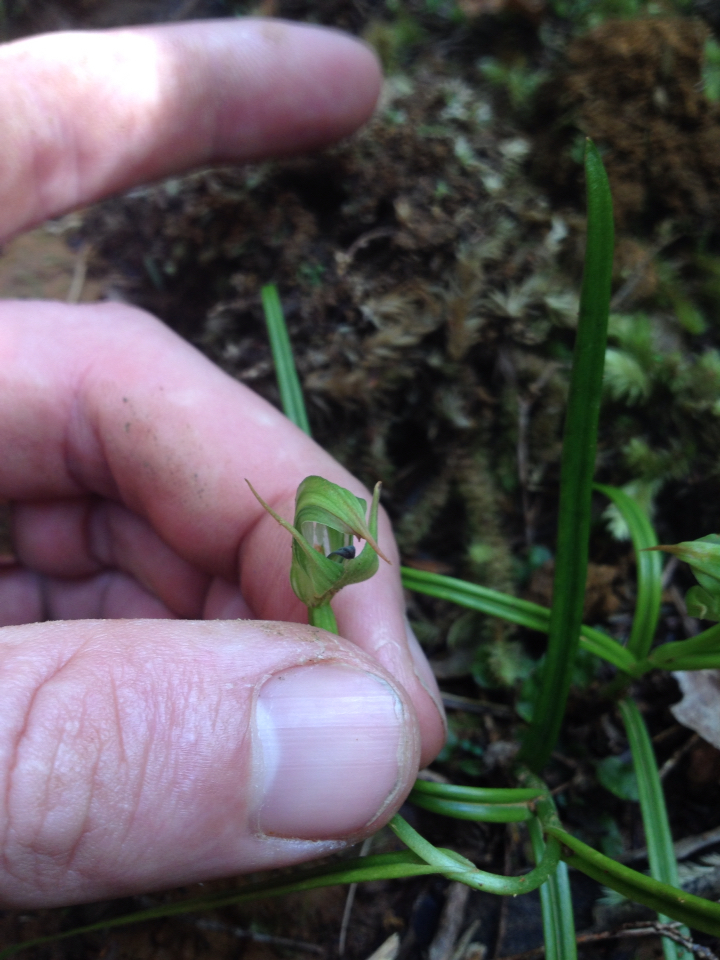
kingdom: Plantae
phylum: Tracheophyta
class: Liliopsida
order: Asparagales
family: Orchidaceae
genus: Pterostylis
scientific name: Pterostylis graminea
